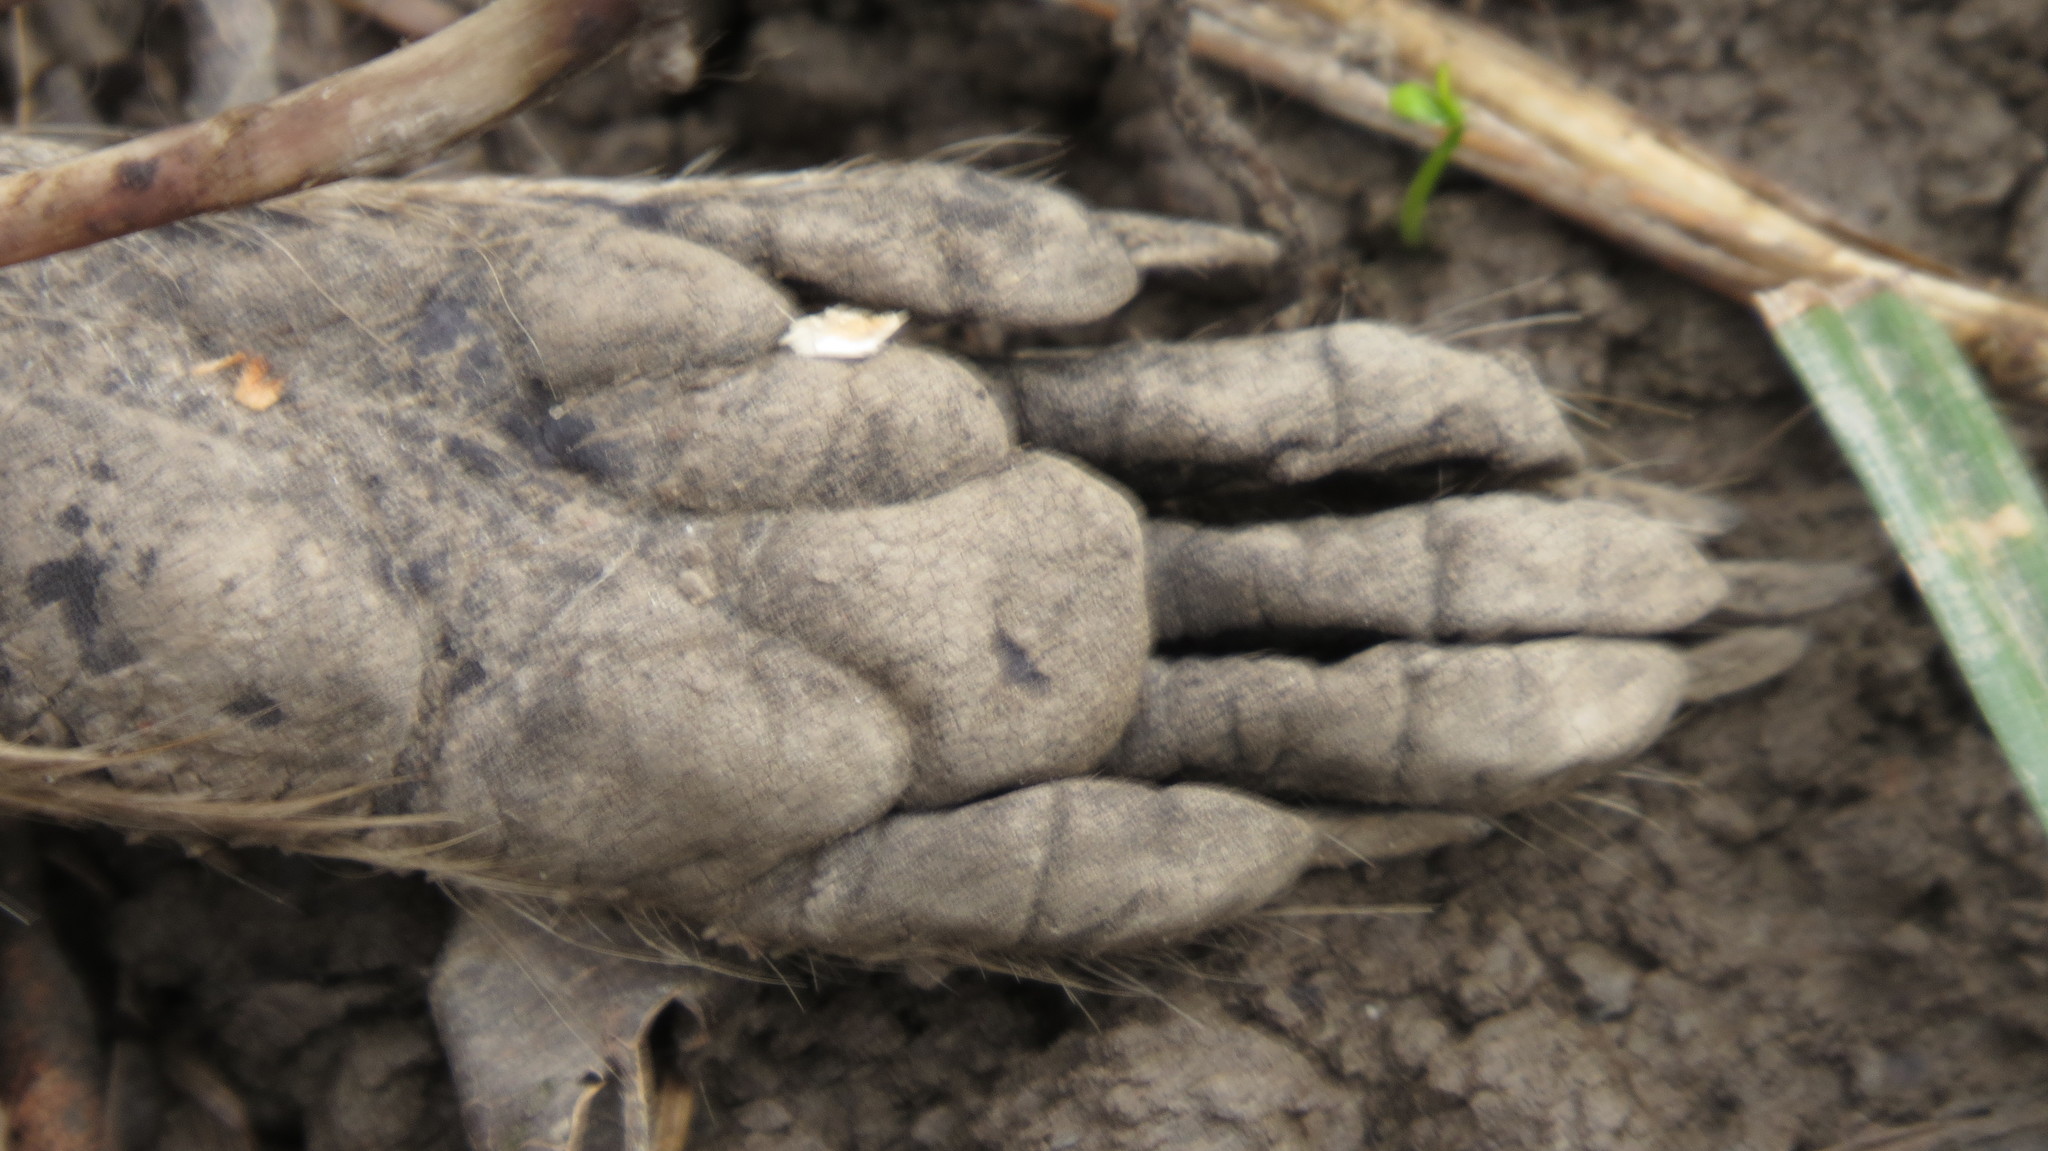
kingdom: Animalia
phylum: Chordata
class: Mammalia
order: Carnivora
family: Procyonidae
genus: Procyon
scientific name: Procyon lotor
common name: Raccoon
